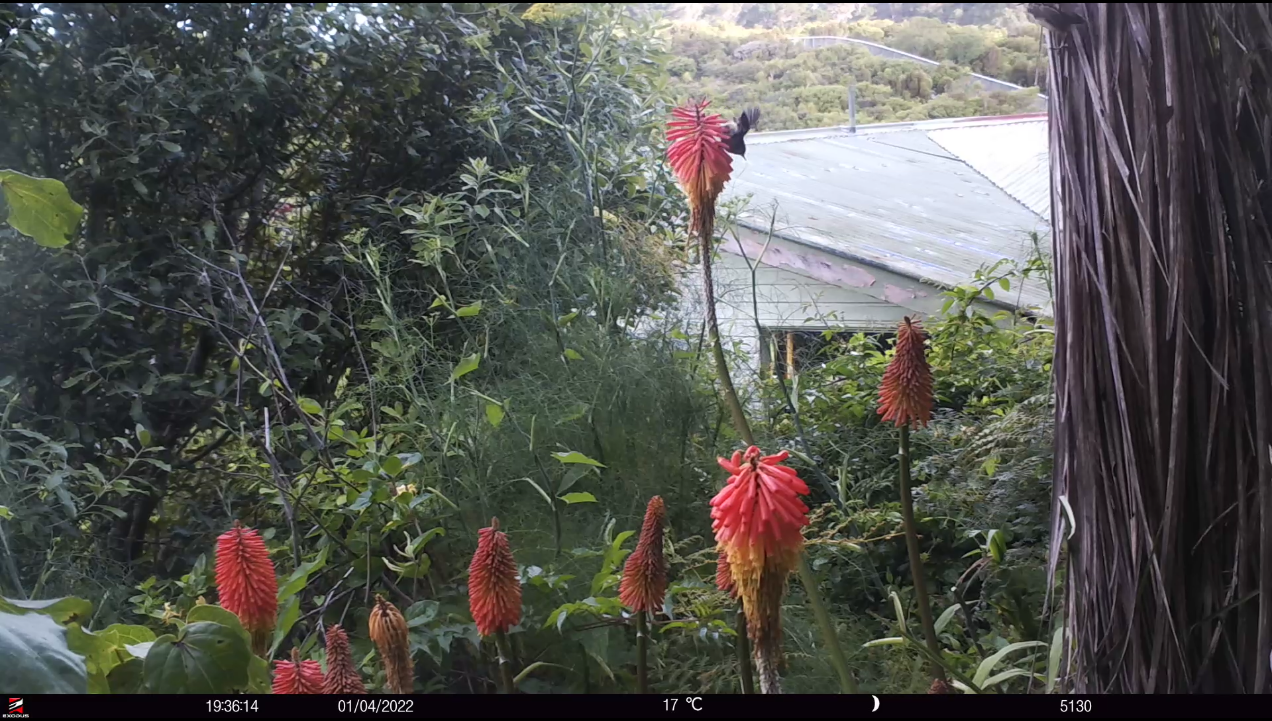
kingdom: Animalia
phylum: Chordata
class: Aves
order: Passeriformes
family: Acanthisittidae
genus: Acanthisitta
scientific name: Acanthisitta chloris
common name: Rifleman
